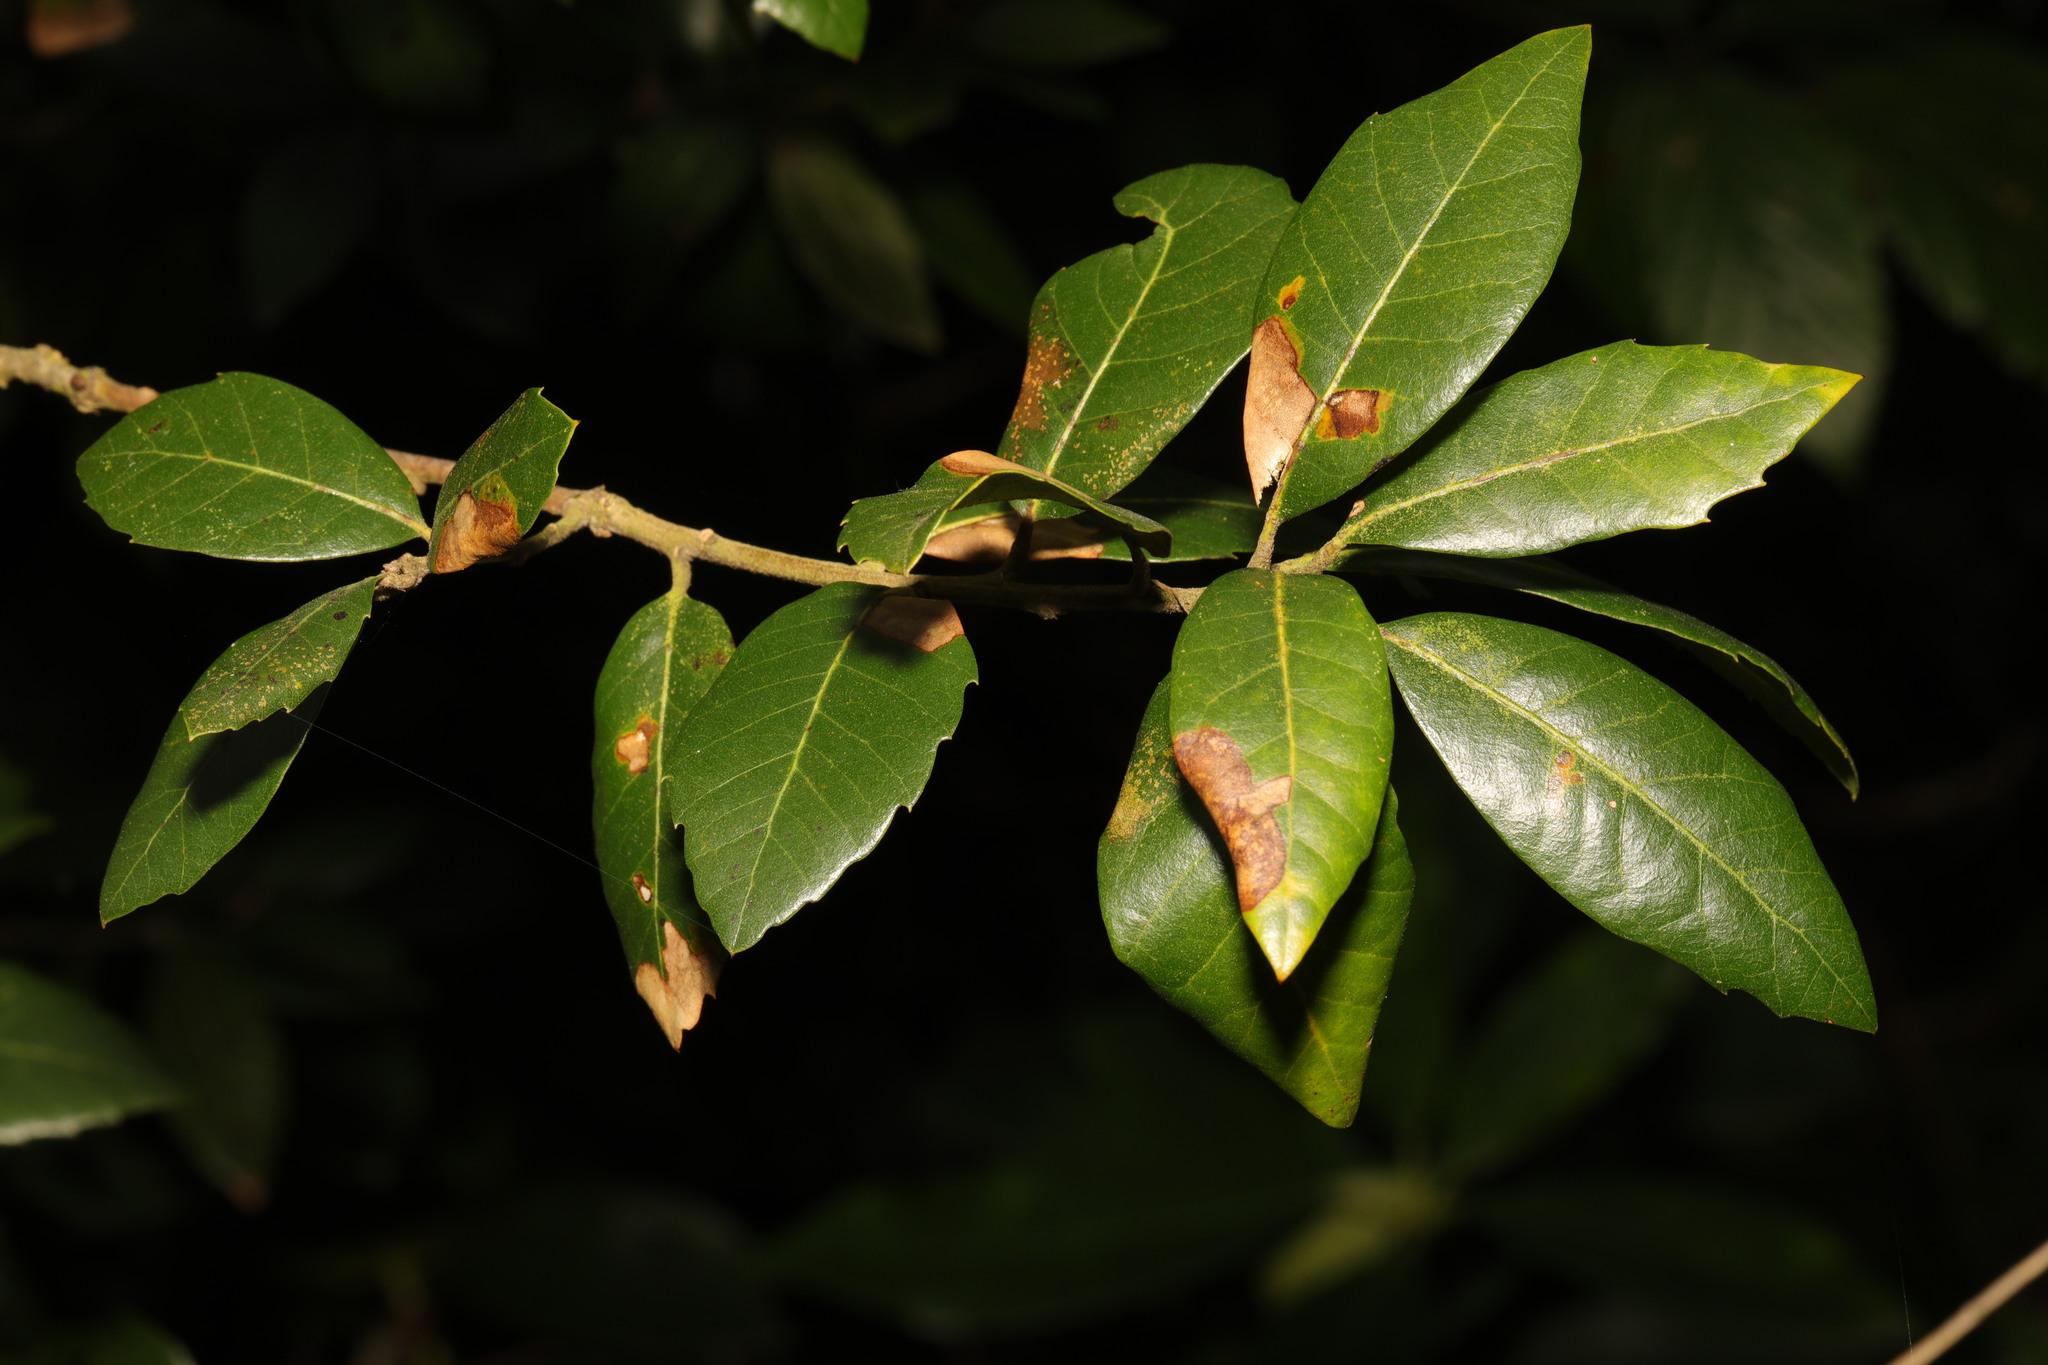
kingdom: Plantae
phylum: Tracheophyta
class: Magnoliopsida
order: Fagales
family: Fagaceae
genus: Quercus
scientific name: Quercus ilex
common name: Evergreen oak
